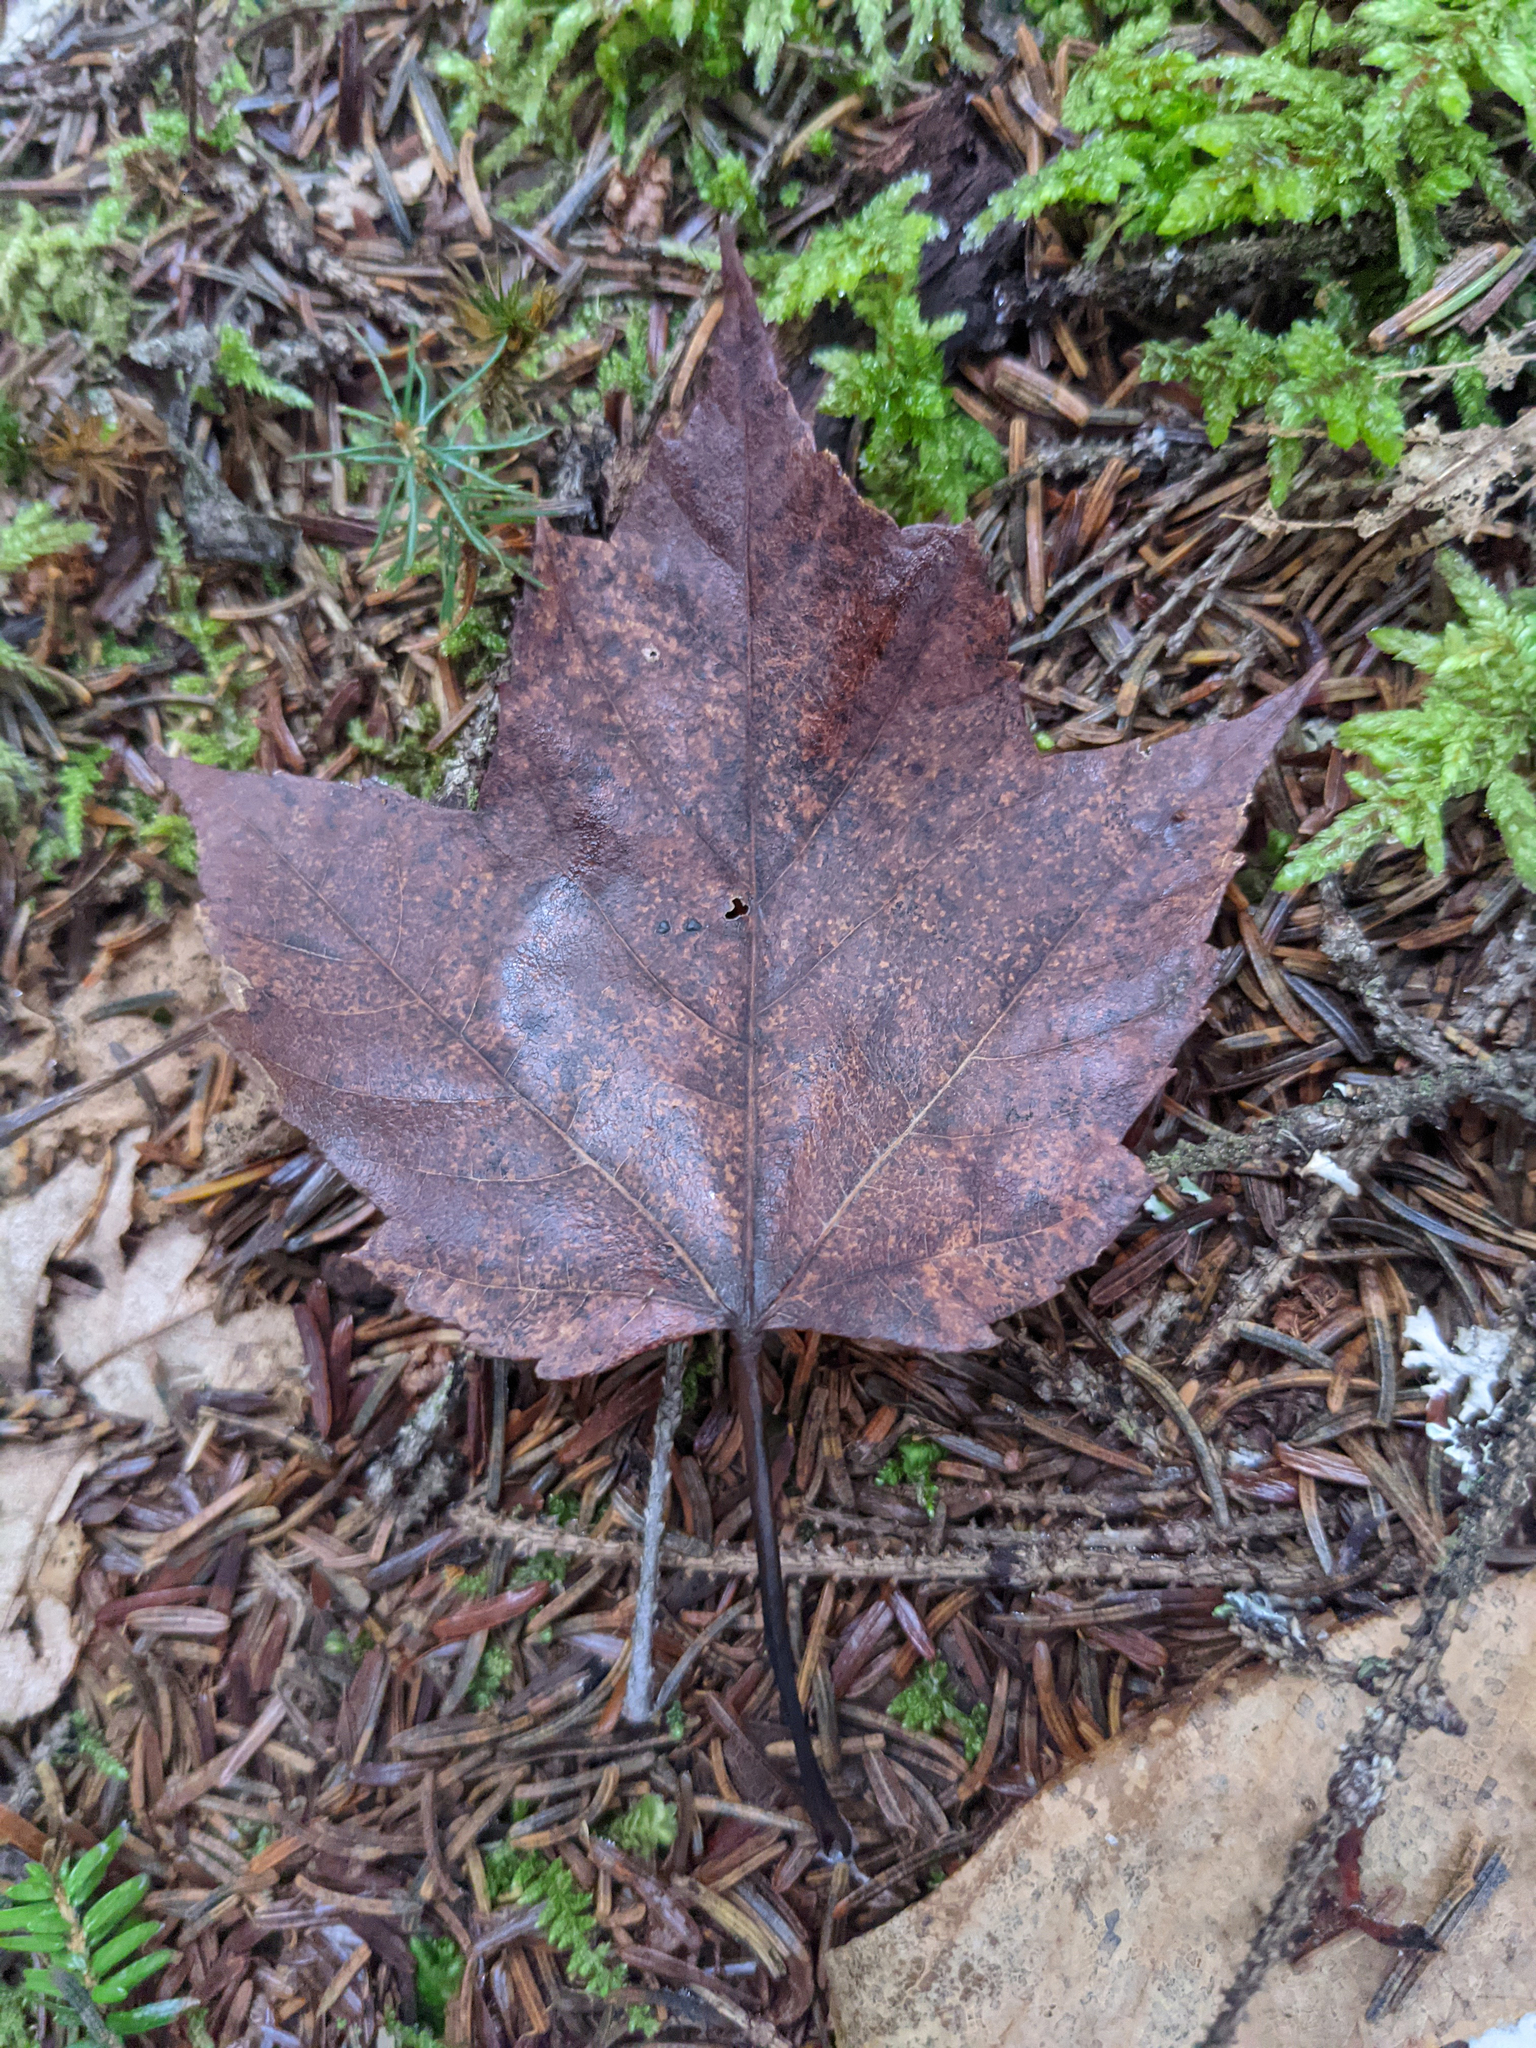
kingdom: Plantae
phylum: Tracheophyta
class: Magnoliopsida
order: Sapindales
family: Sapindaceae
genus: Acer
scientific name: Acer rubrum
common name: Red maple
